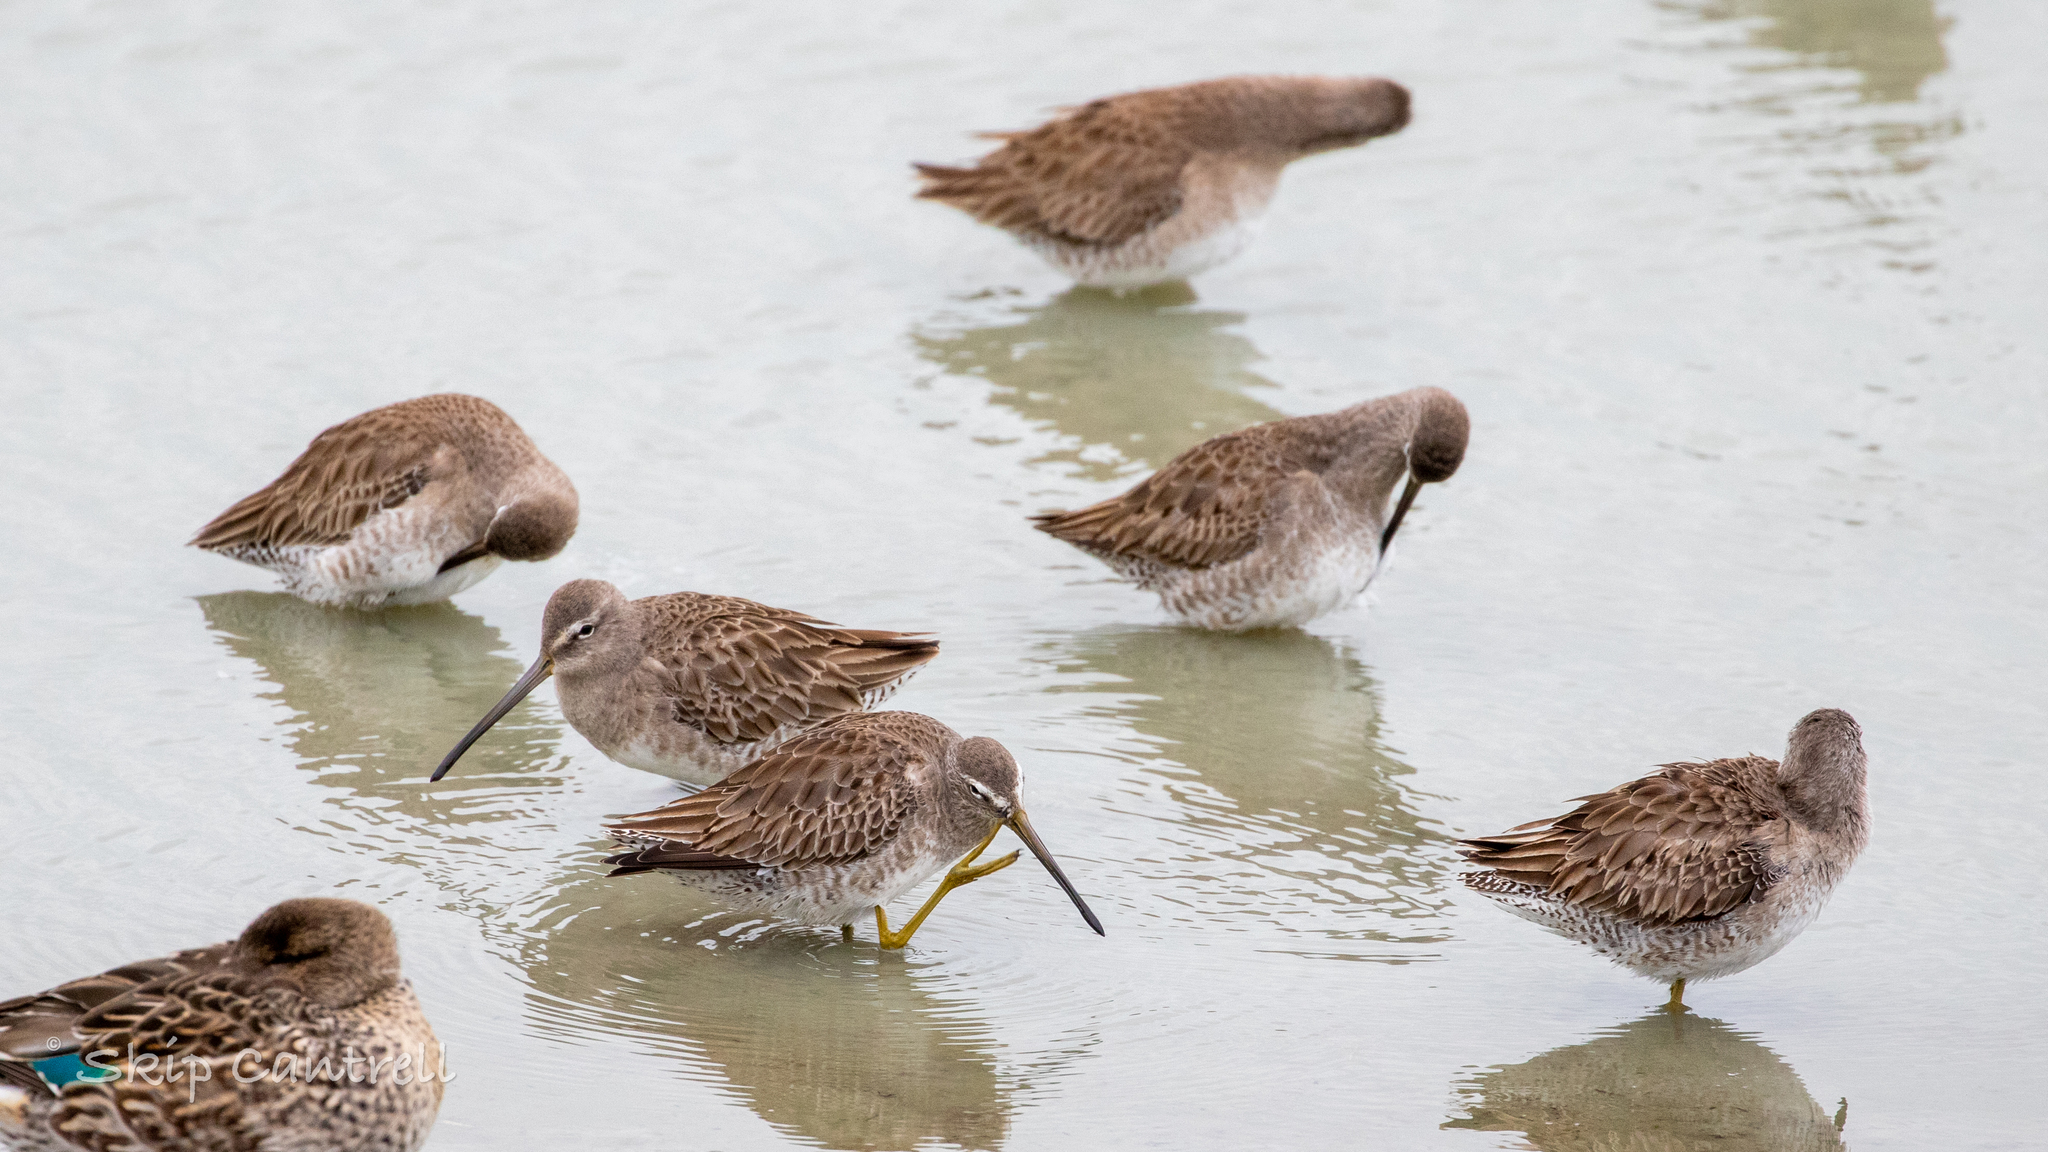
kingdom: Animalia
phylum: Chordata
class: Aves
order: Charadriiformes
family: Scolopacidae
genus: Limnodromus
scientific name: Limnodromus scolopaceus
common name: Long-billed dowitcher
